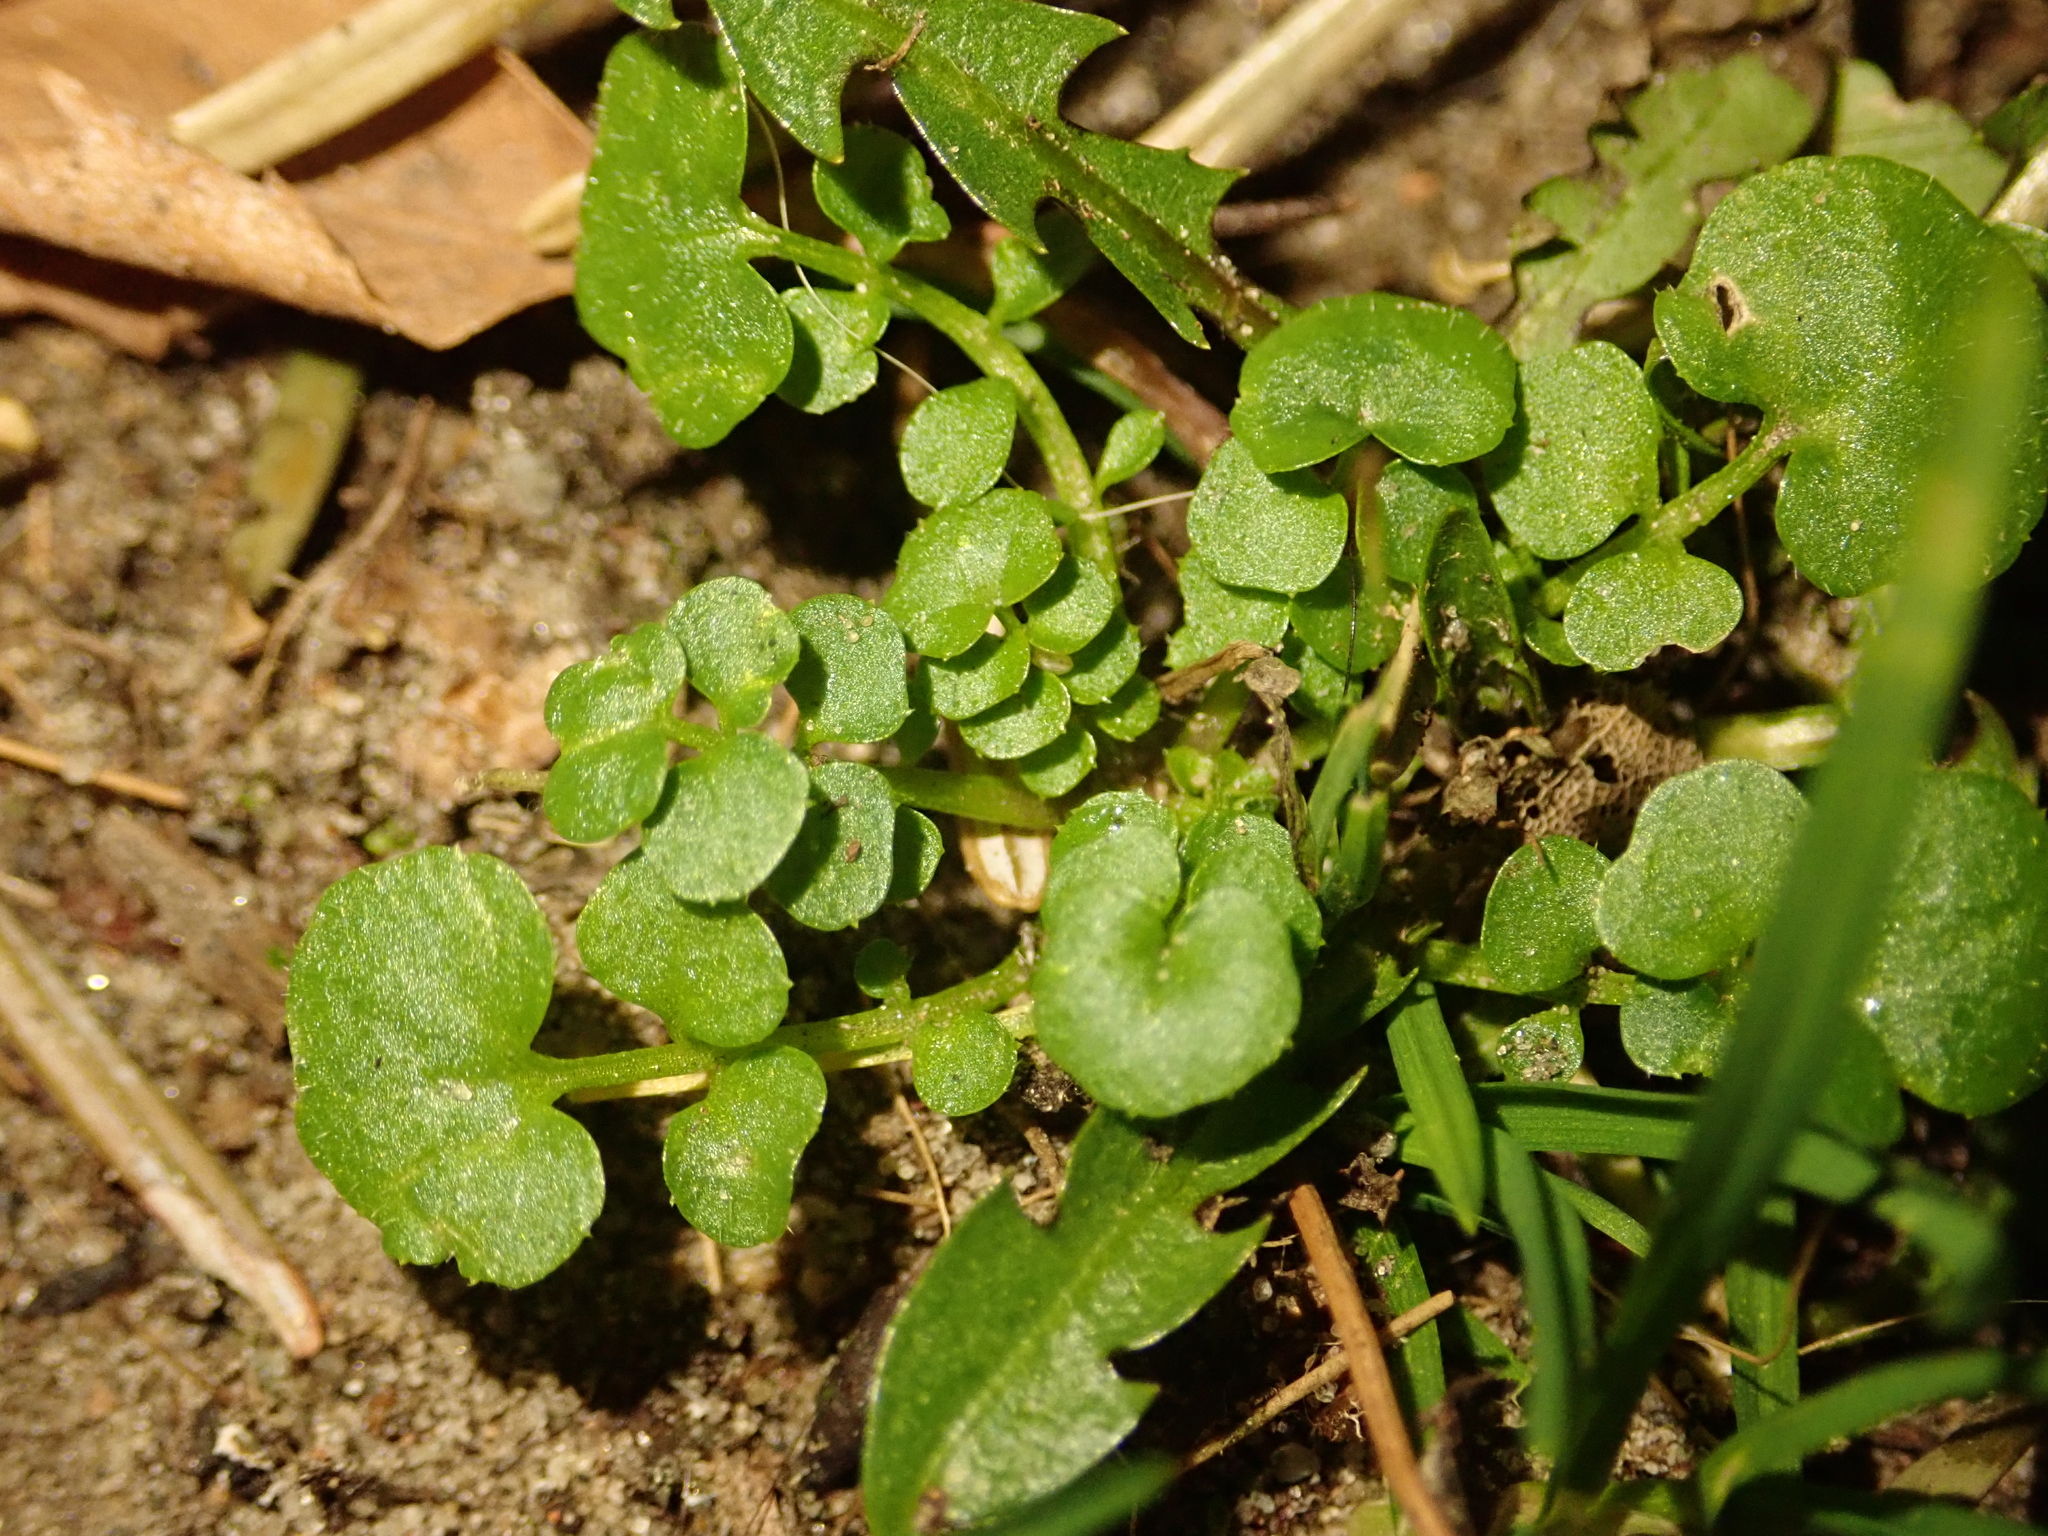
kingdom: Plantae
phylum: Tracheophyta
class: Magnoliopsida
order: Brassicales
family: Brassicaceae
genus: Cardamine
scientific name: Cardamine hirsuta
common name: Hairy bittercress
